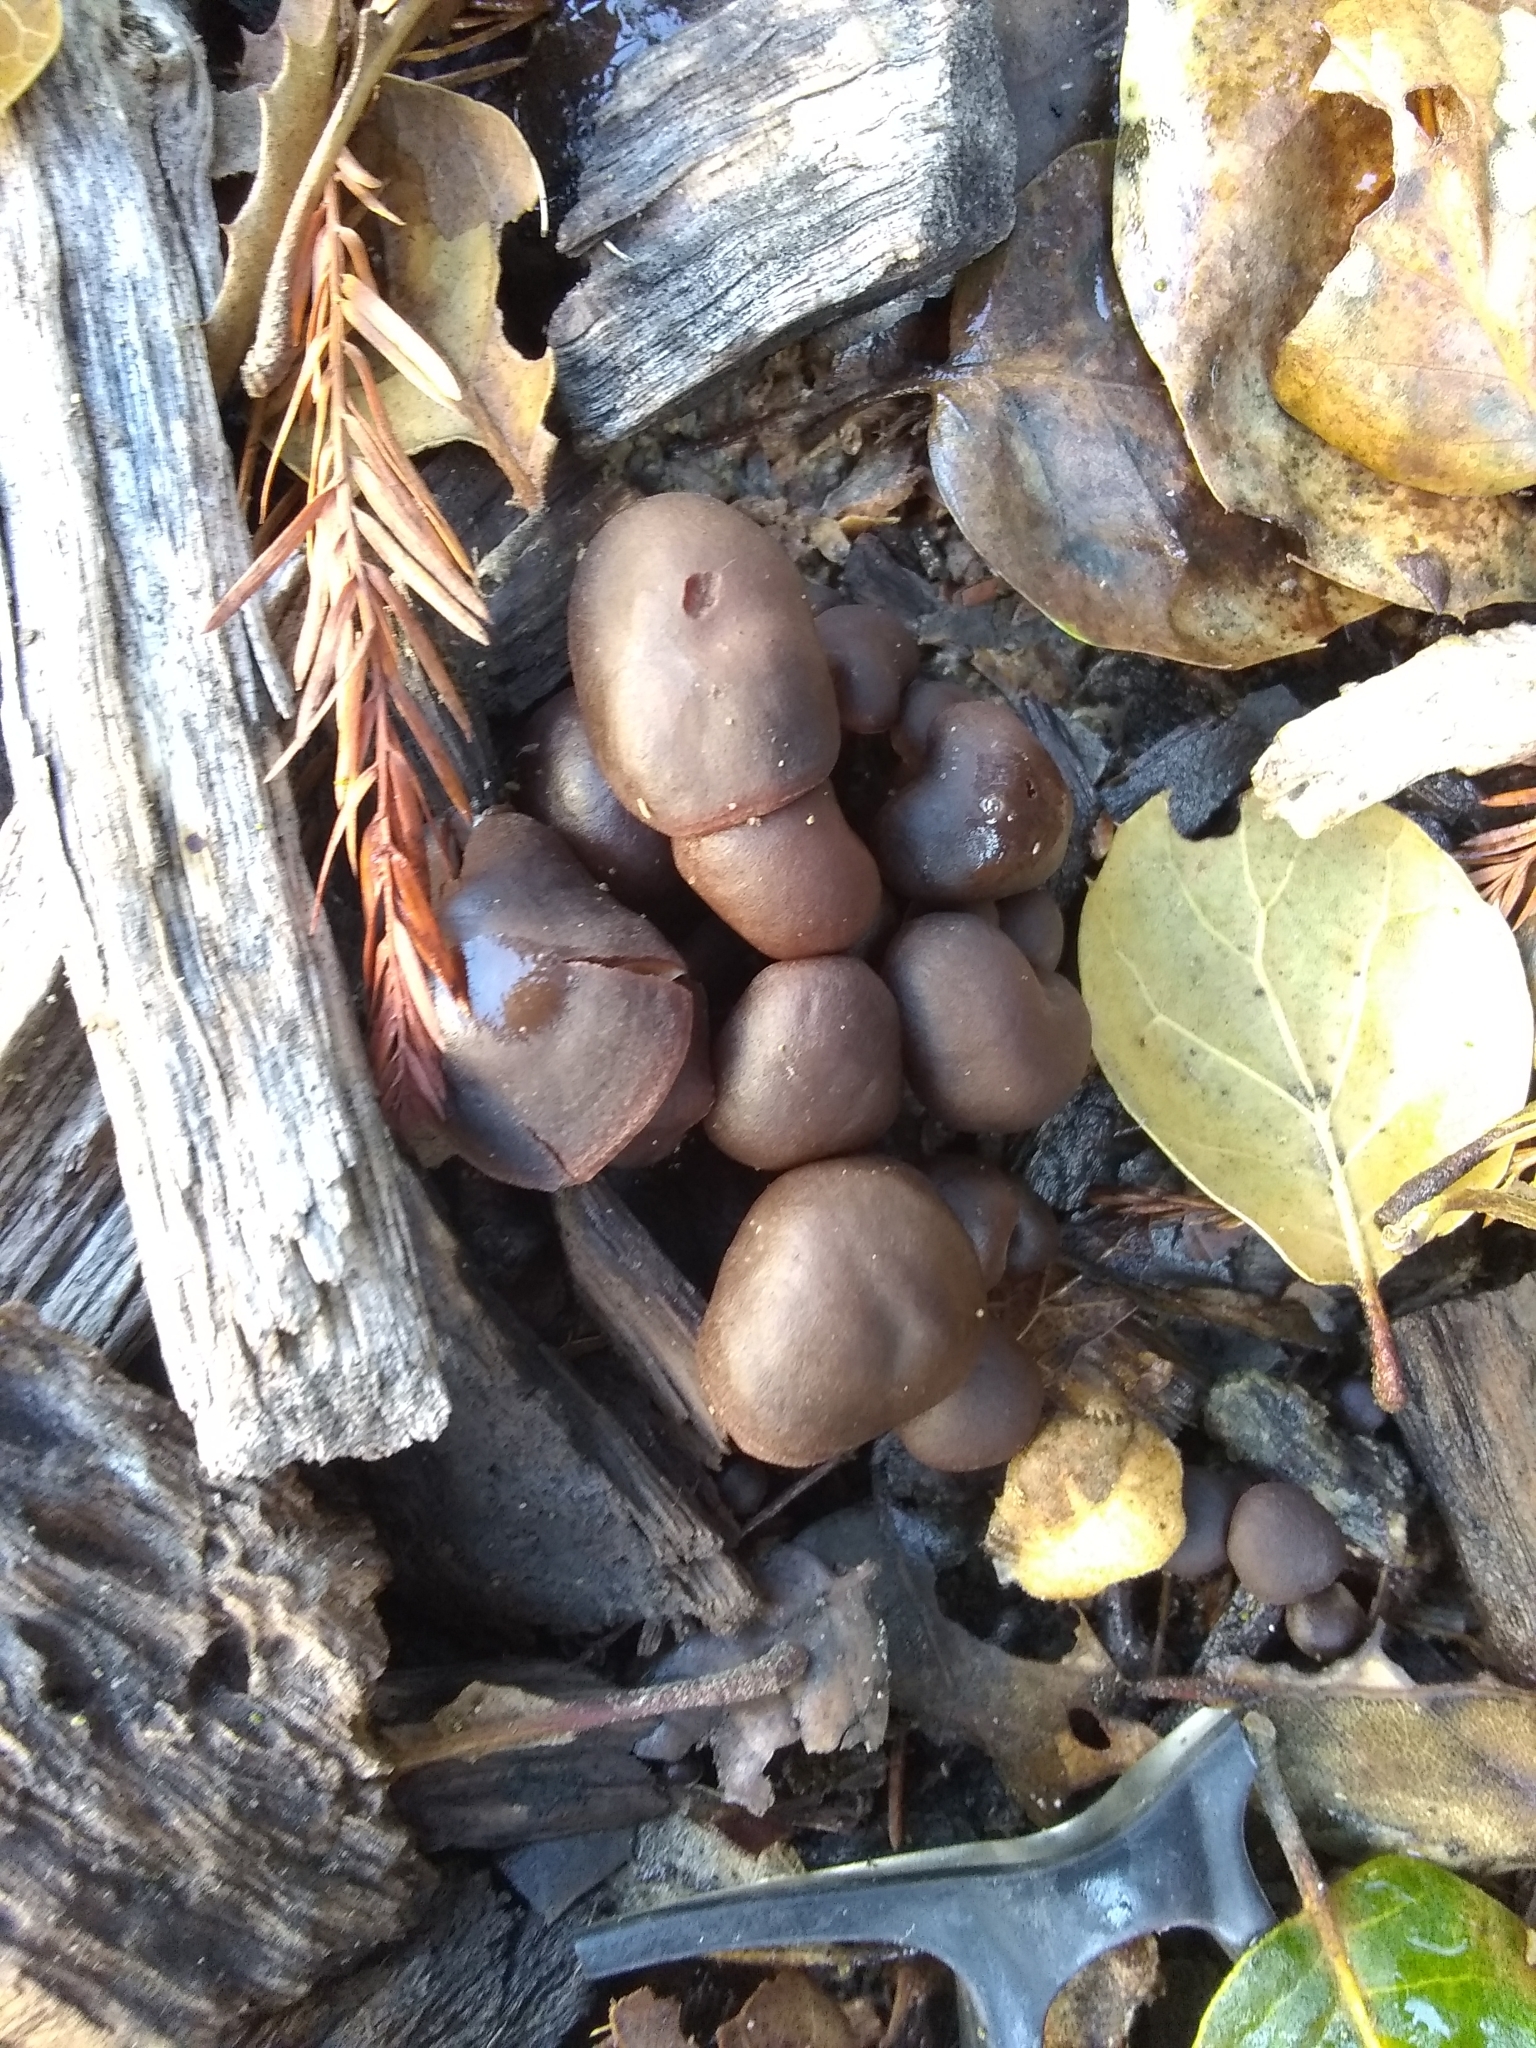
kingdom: Fungi
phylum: Basidiomycota
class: Agaricomycetes
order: Agaricales
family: Omphalotaceae
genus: Gymnopus
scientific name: Gymnopus brassicolens
